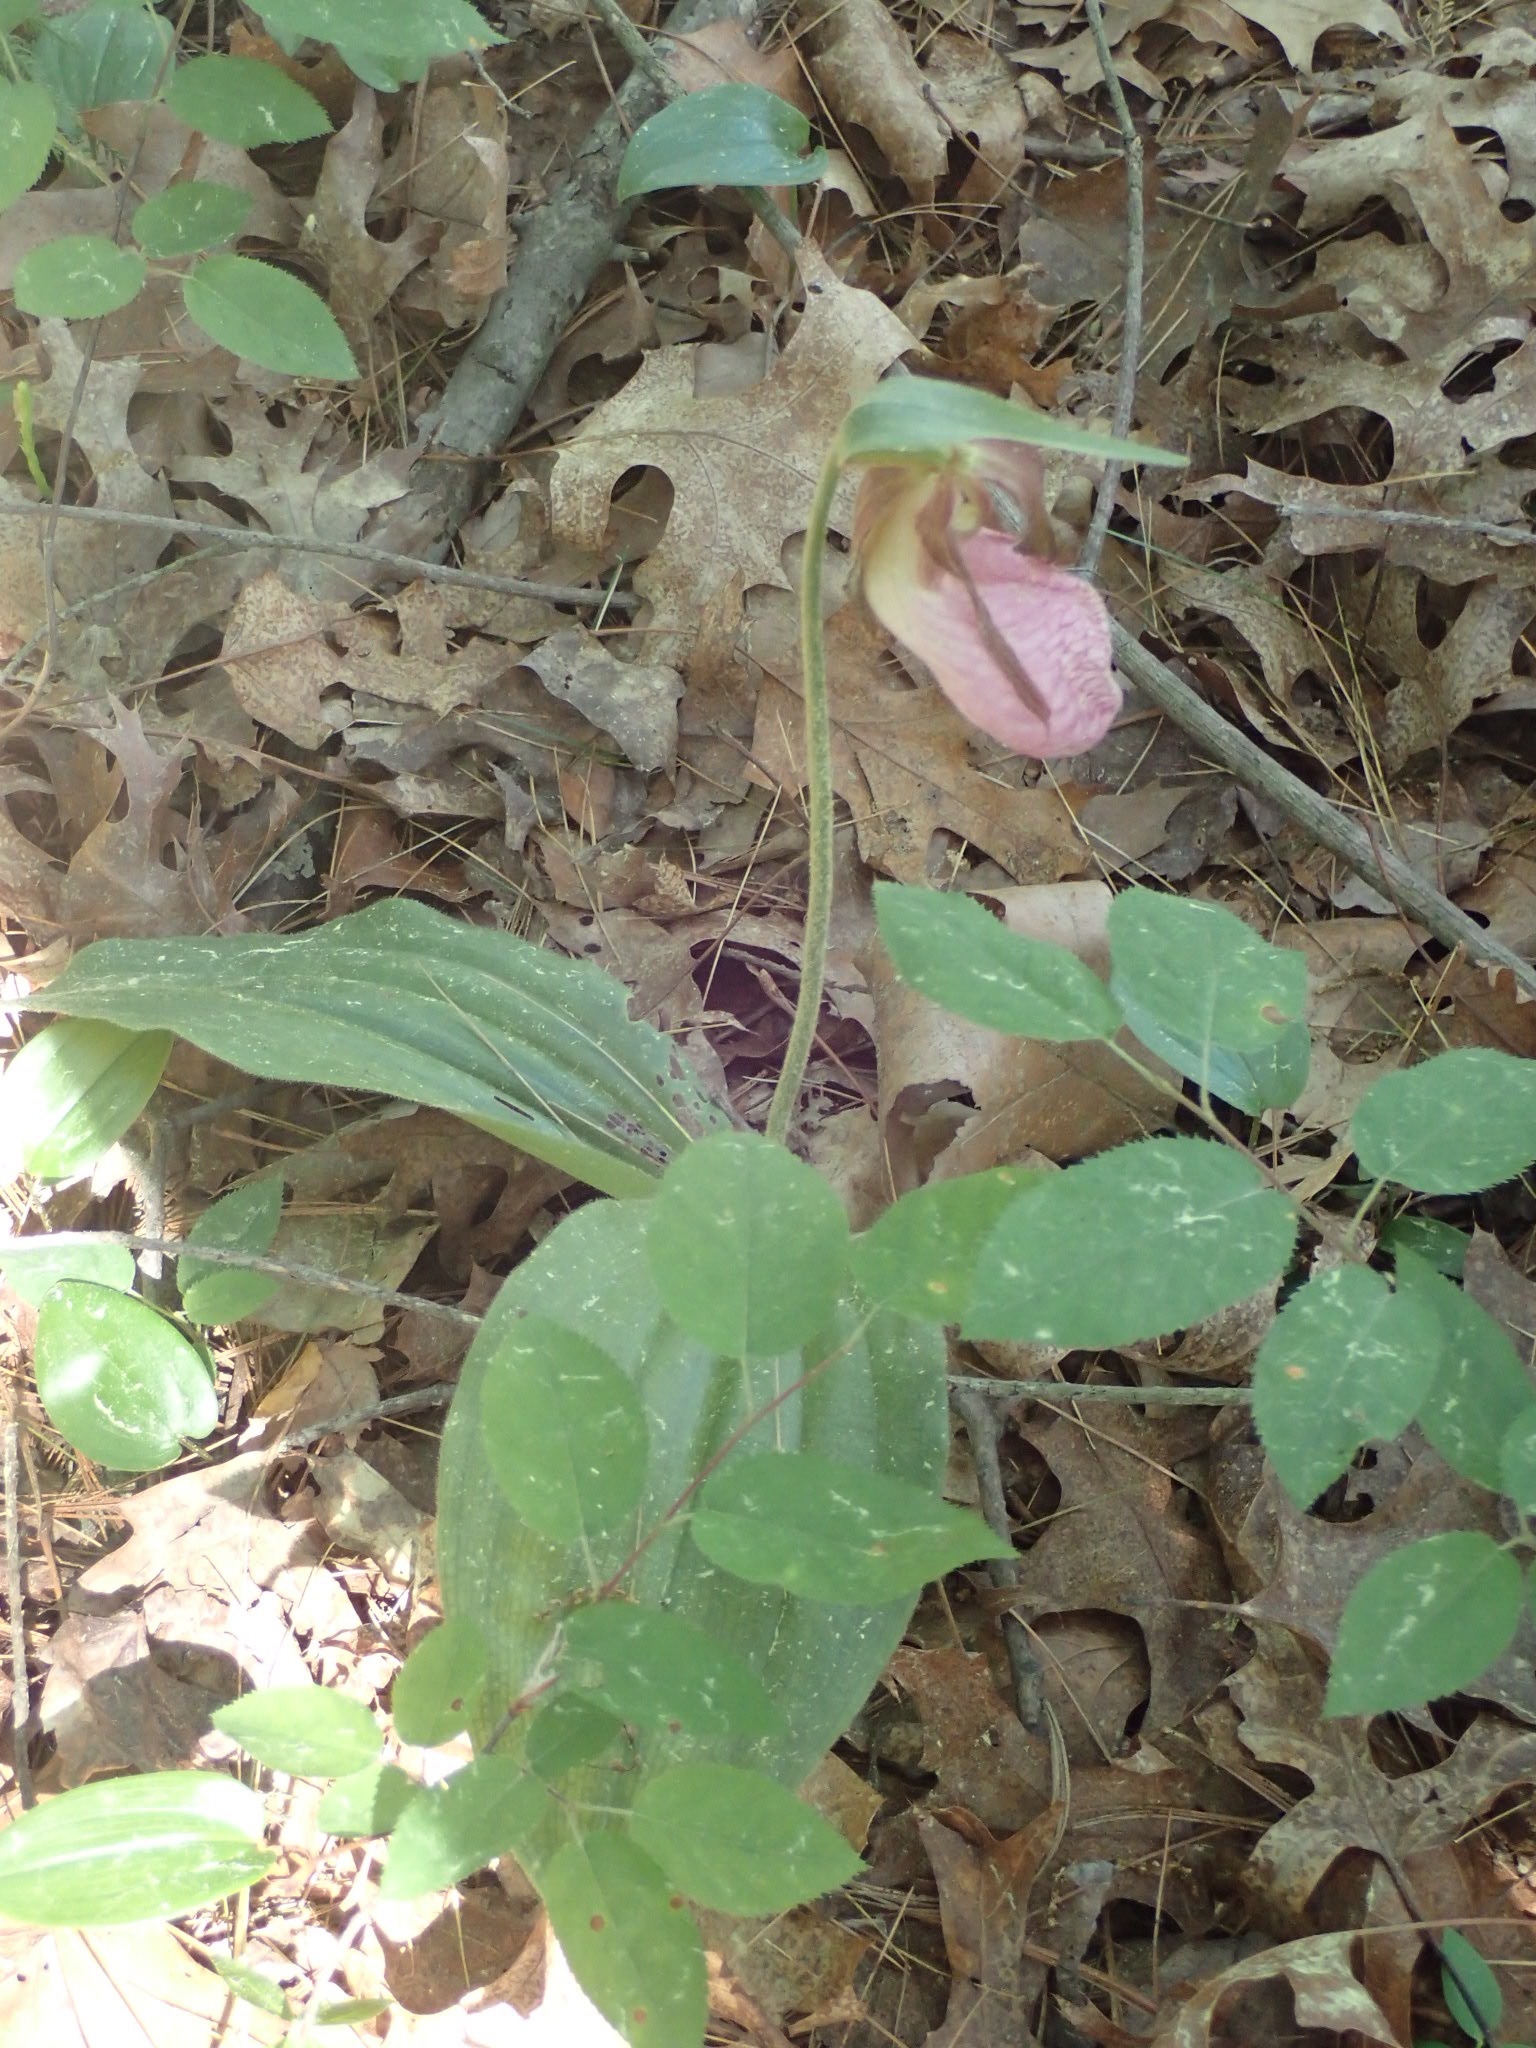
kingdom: Plantae
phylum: Tracheophyta
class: Liliopsida
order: Asparagales
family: Orchidaceae
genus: Cypripedium
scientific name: Cypripedium acaule
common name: Pink lady's-slipper
